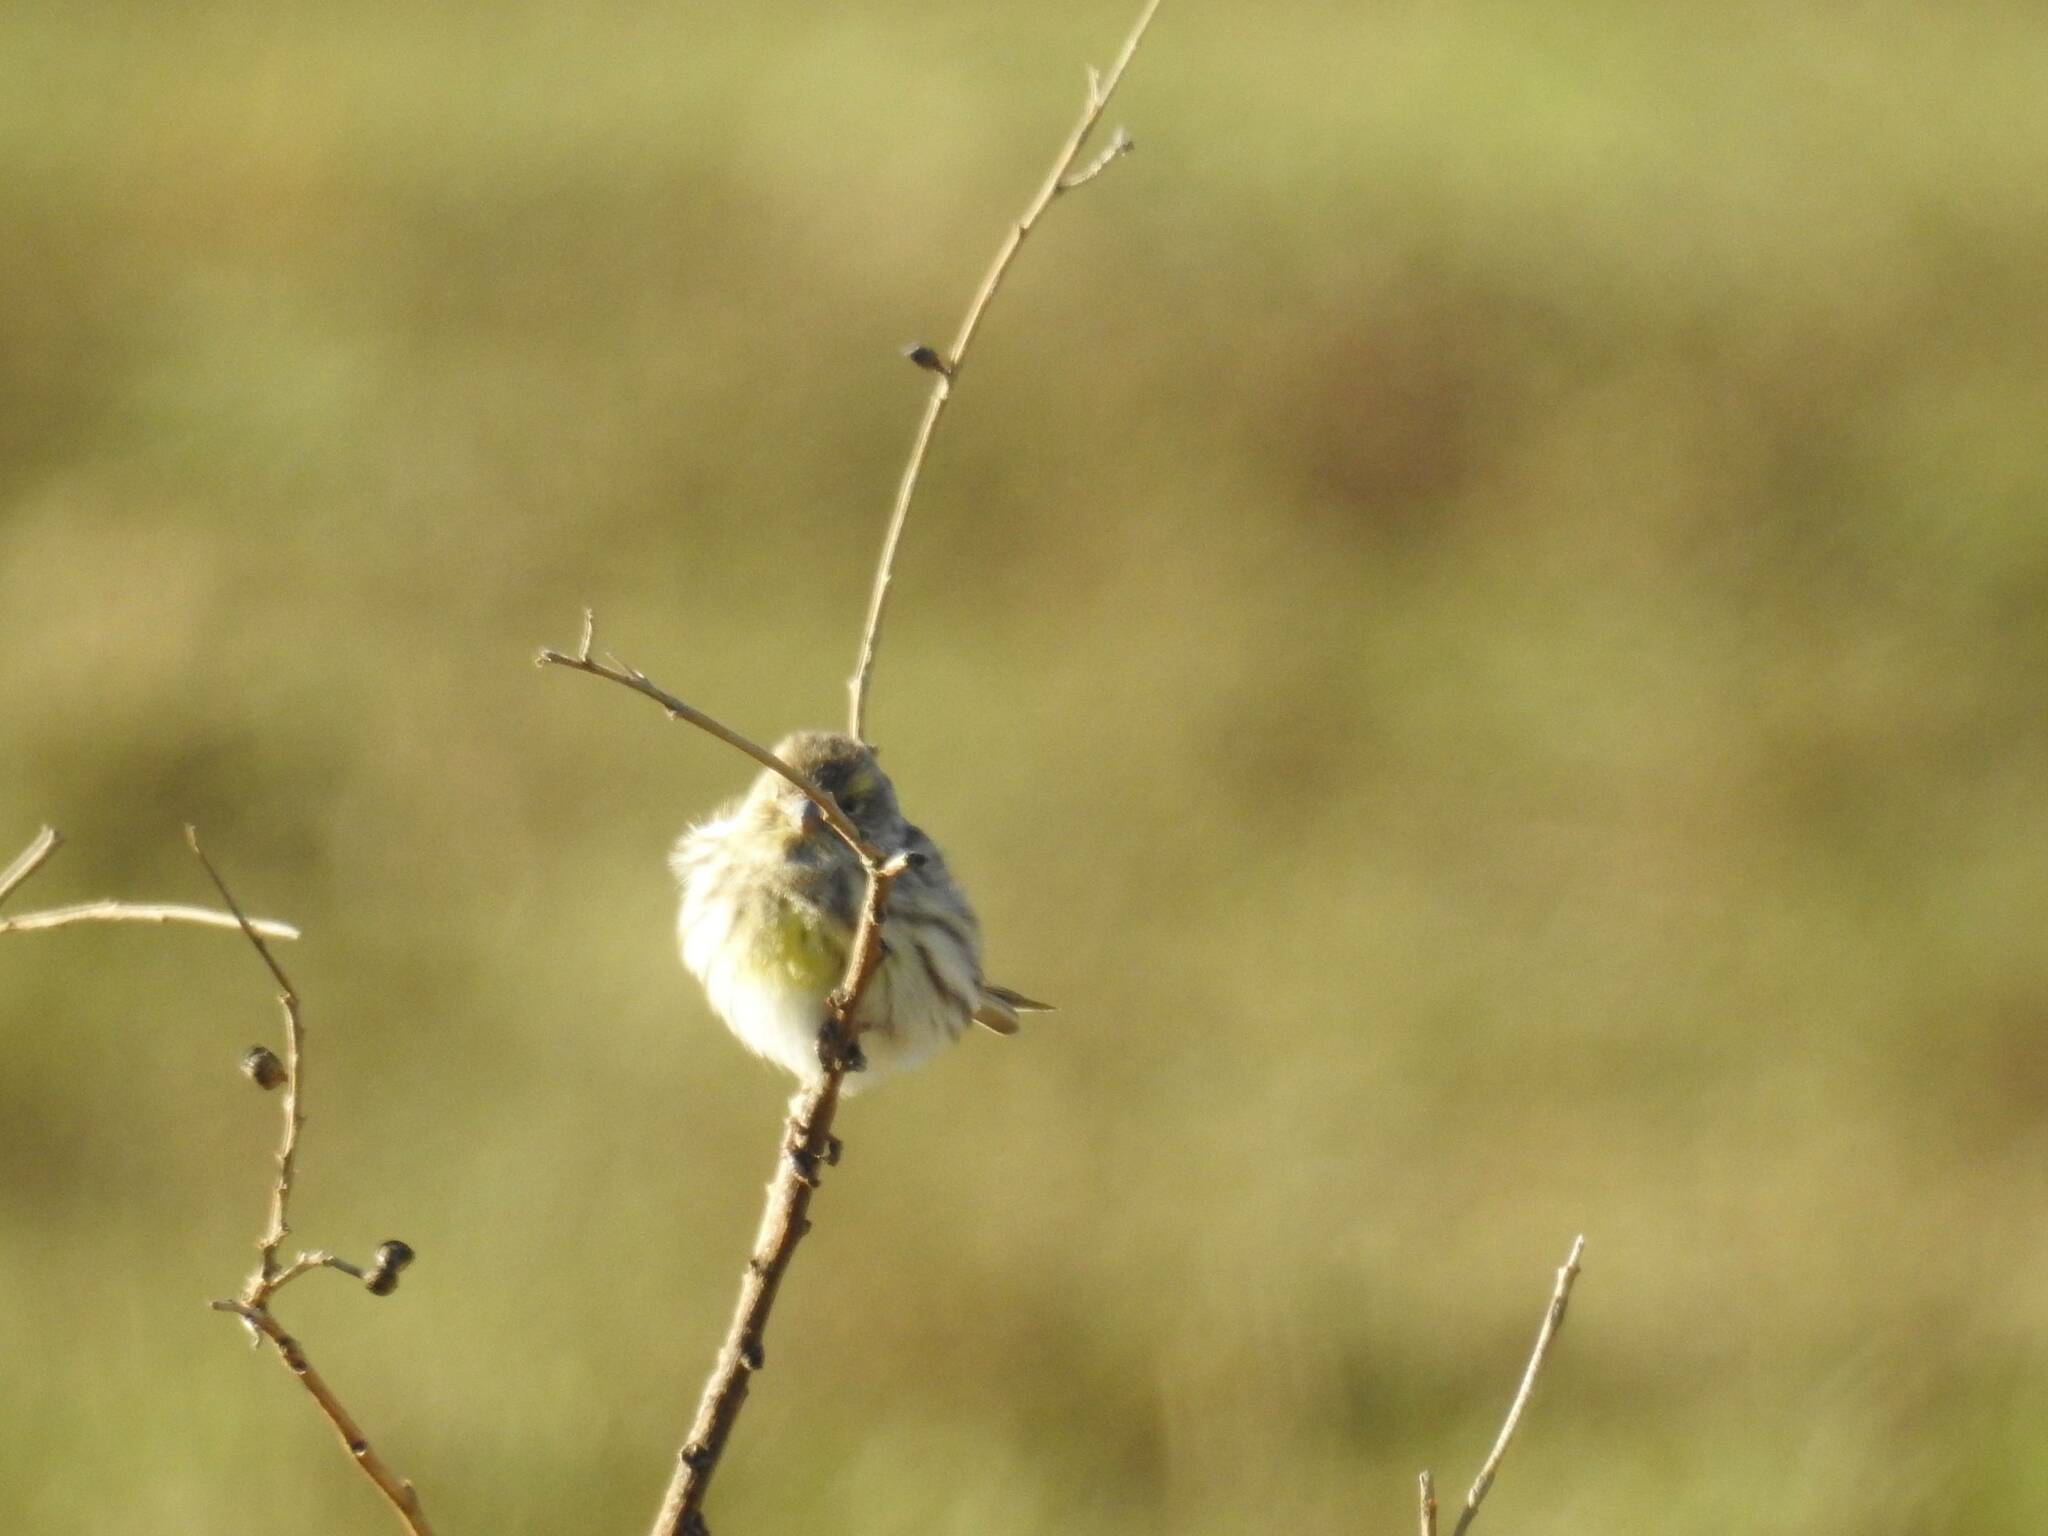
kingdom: Animalia
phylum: Chordata
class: Aves
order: Passeriformes
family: Fringillidae
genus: Serinus
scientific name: Serinus serinus
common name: European serin
